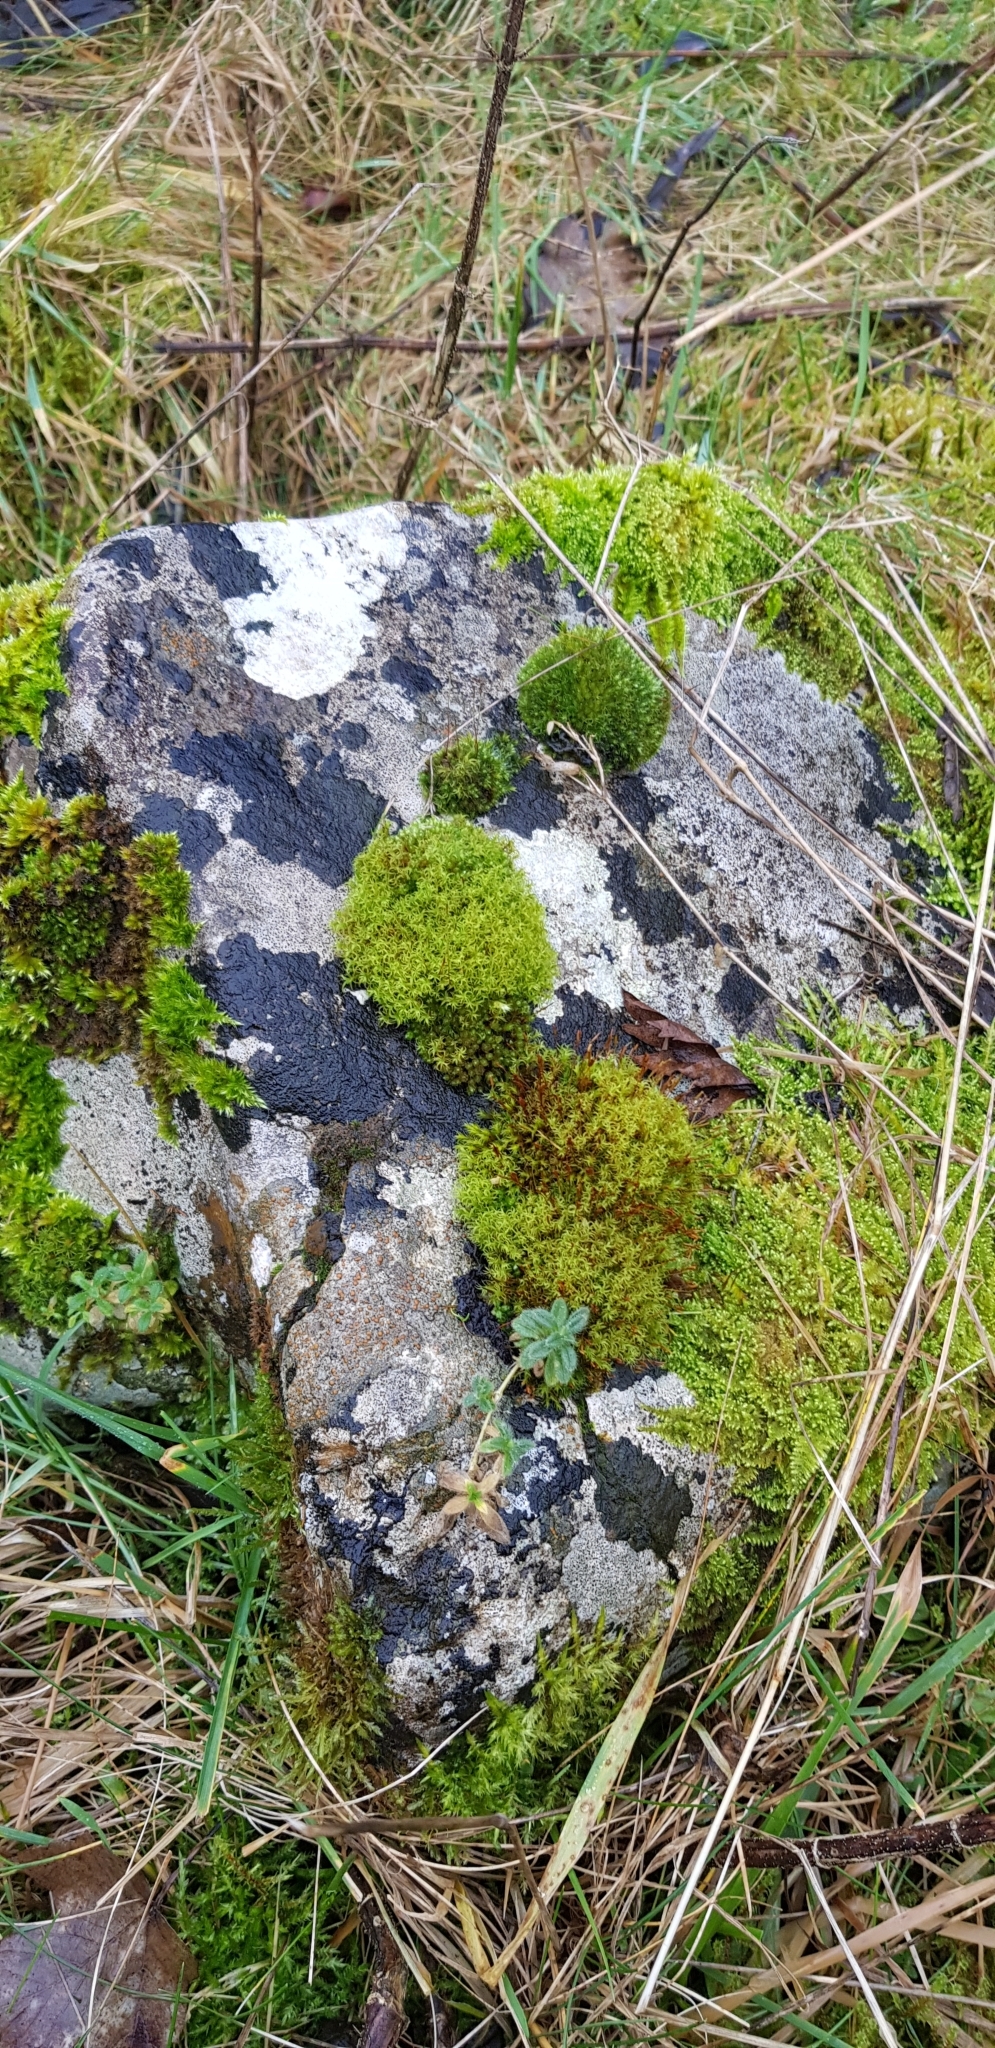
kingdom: Plantae
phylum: Bryophyta
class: Bryopsida
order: Pottiales
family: Pottiaceae
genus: Bryoerythrophyllum
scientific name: Bryoerythrophyllum recurvirostrum
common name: Red beard moss
